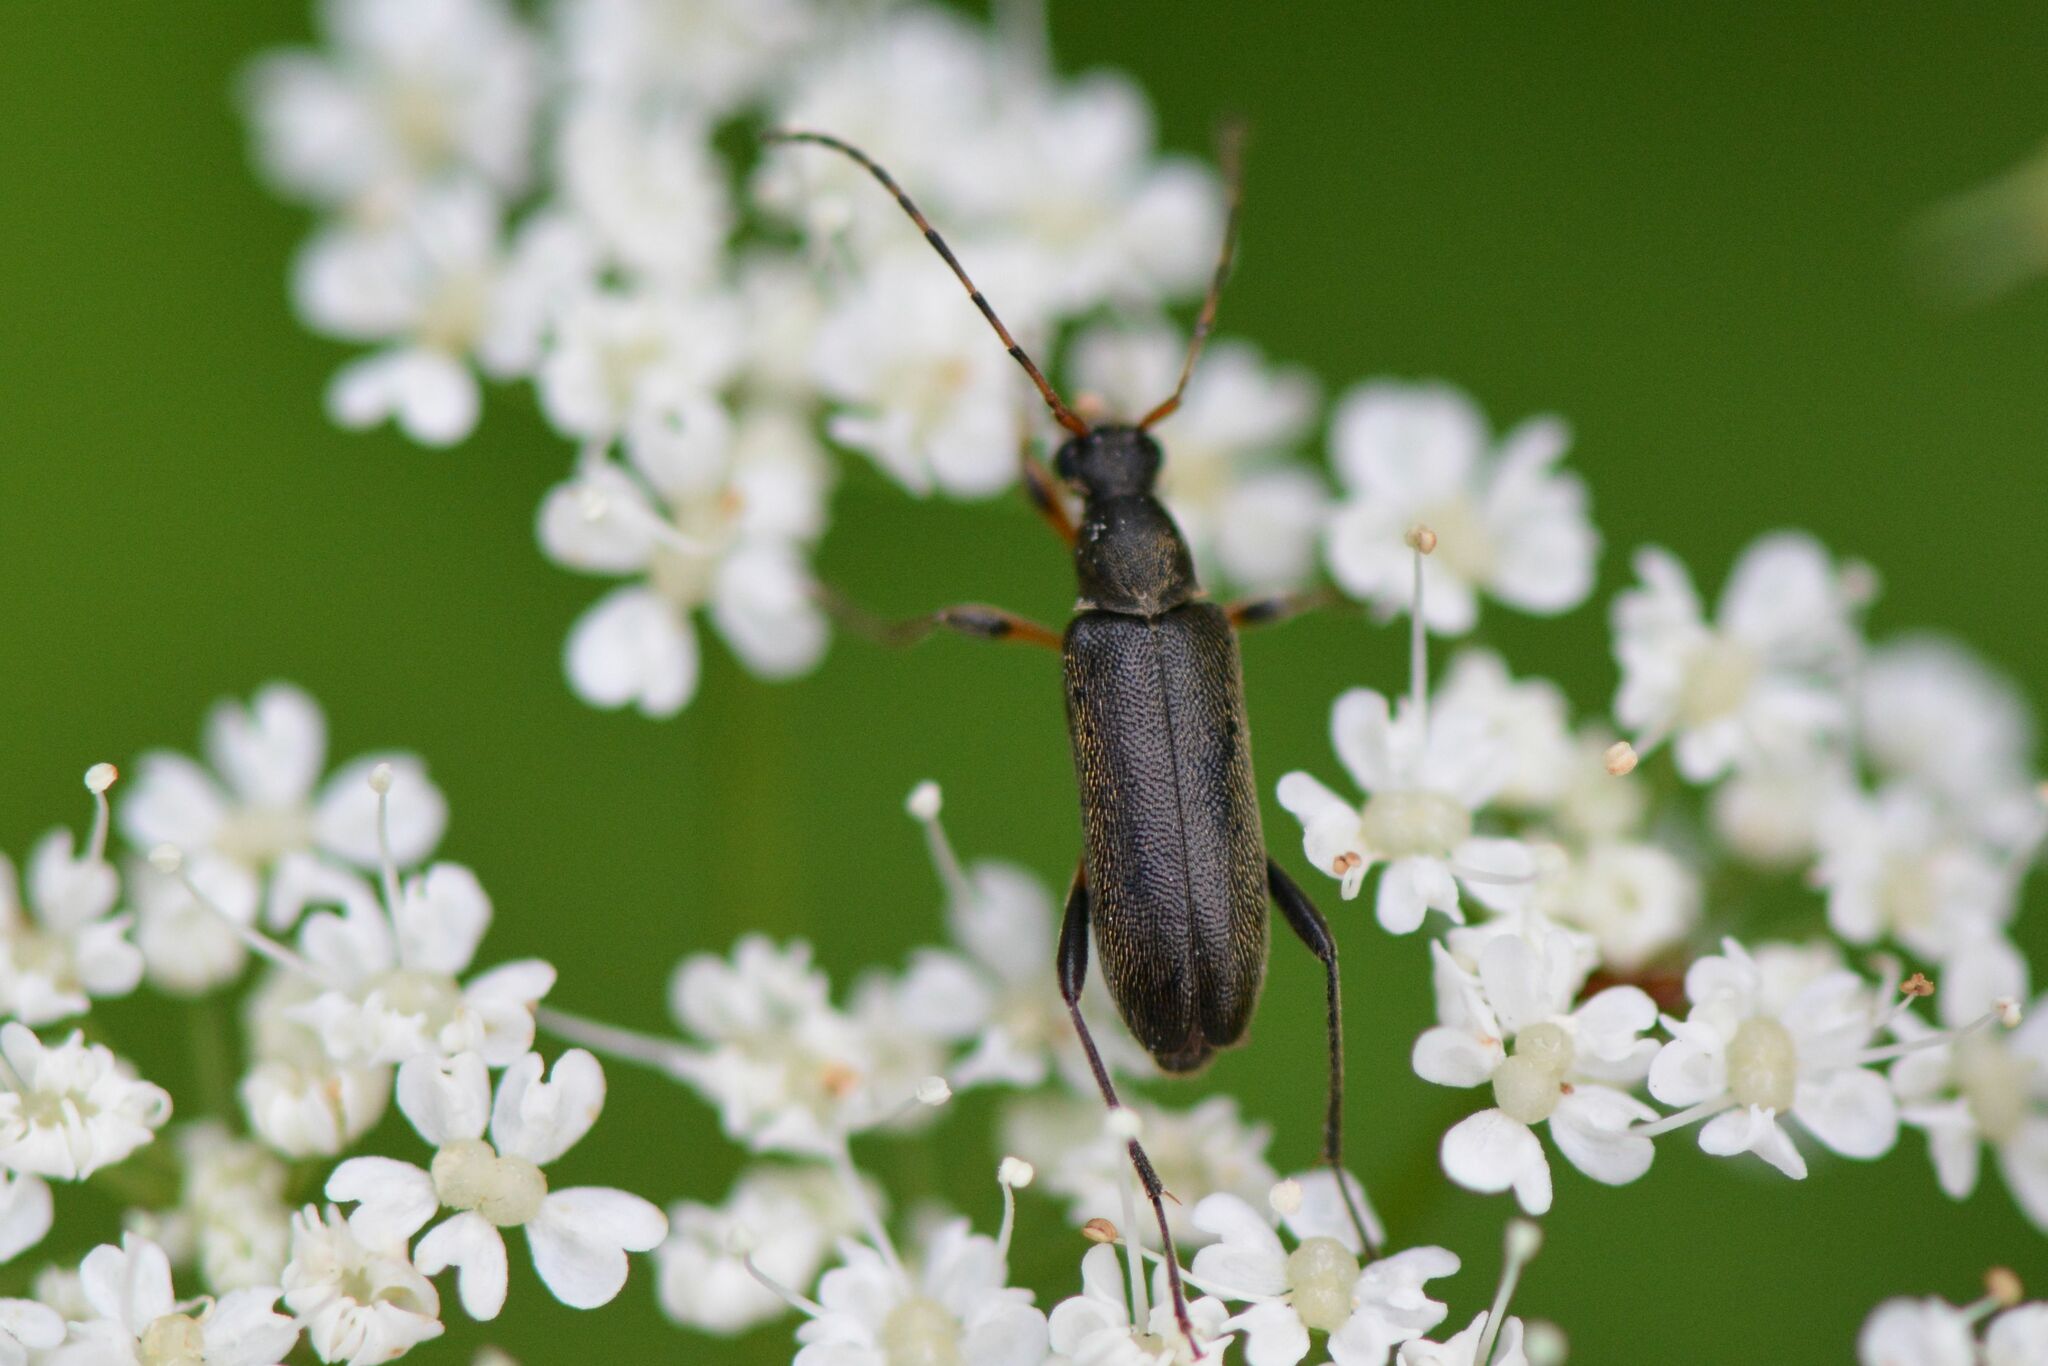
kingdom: Animalia
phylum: Arthropoda
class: Insecta
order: Coleoptera
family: Cerambycidae
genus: Grammoptera
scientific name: Grammoptera ruficornis
